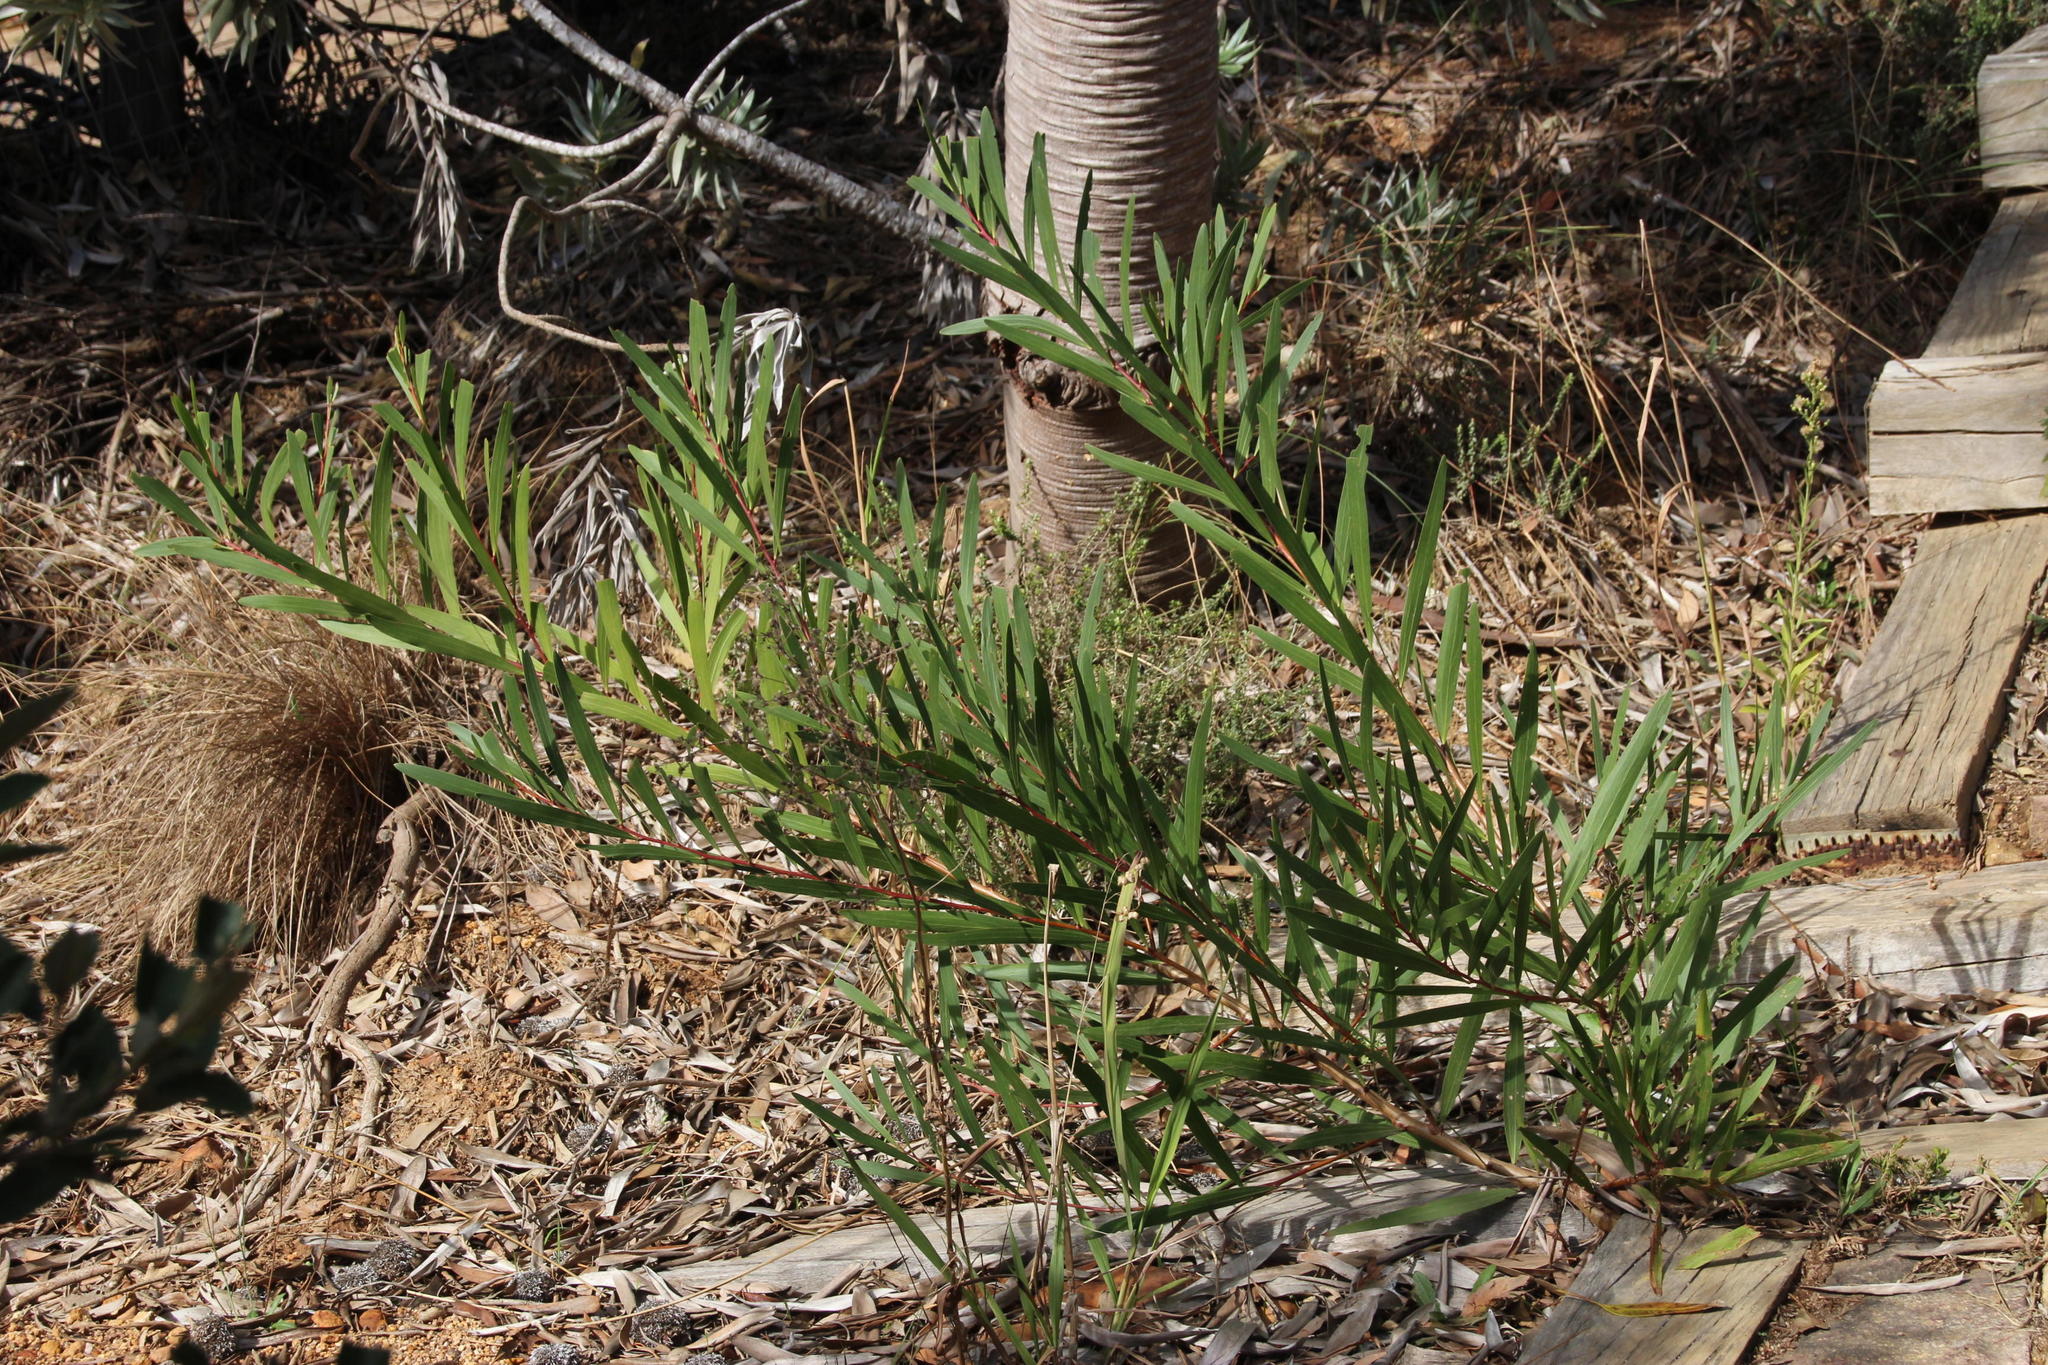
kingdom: Plantae
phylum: Tracheophyta
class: Magnoliopsida
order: Fabales
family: Fabaceae
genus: Acacia
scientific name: Acacia longifolia
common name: Sydney golden wattle
